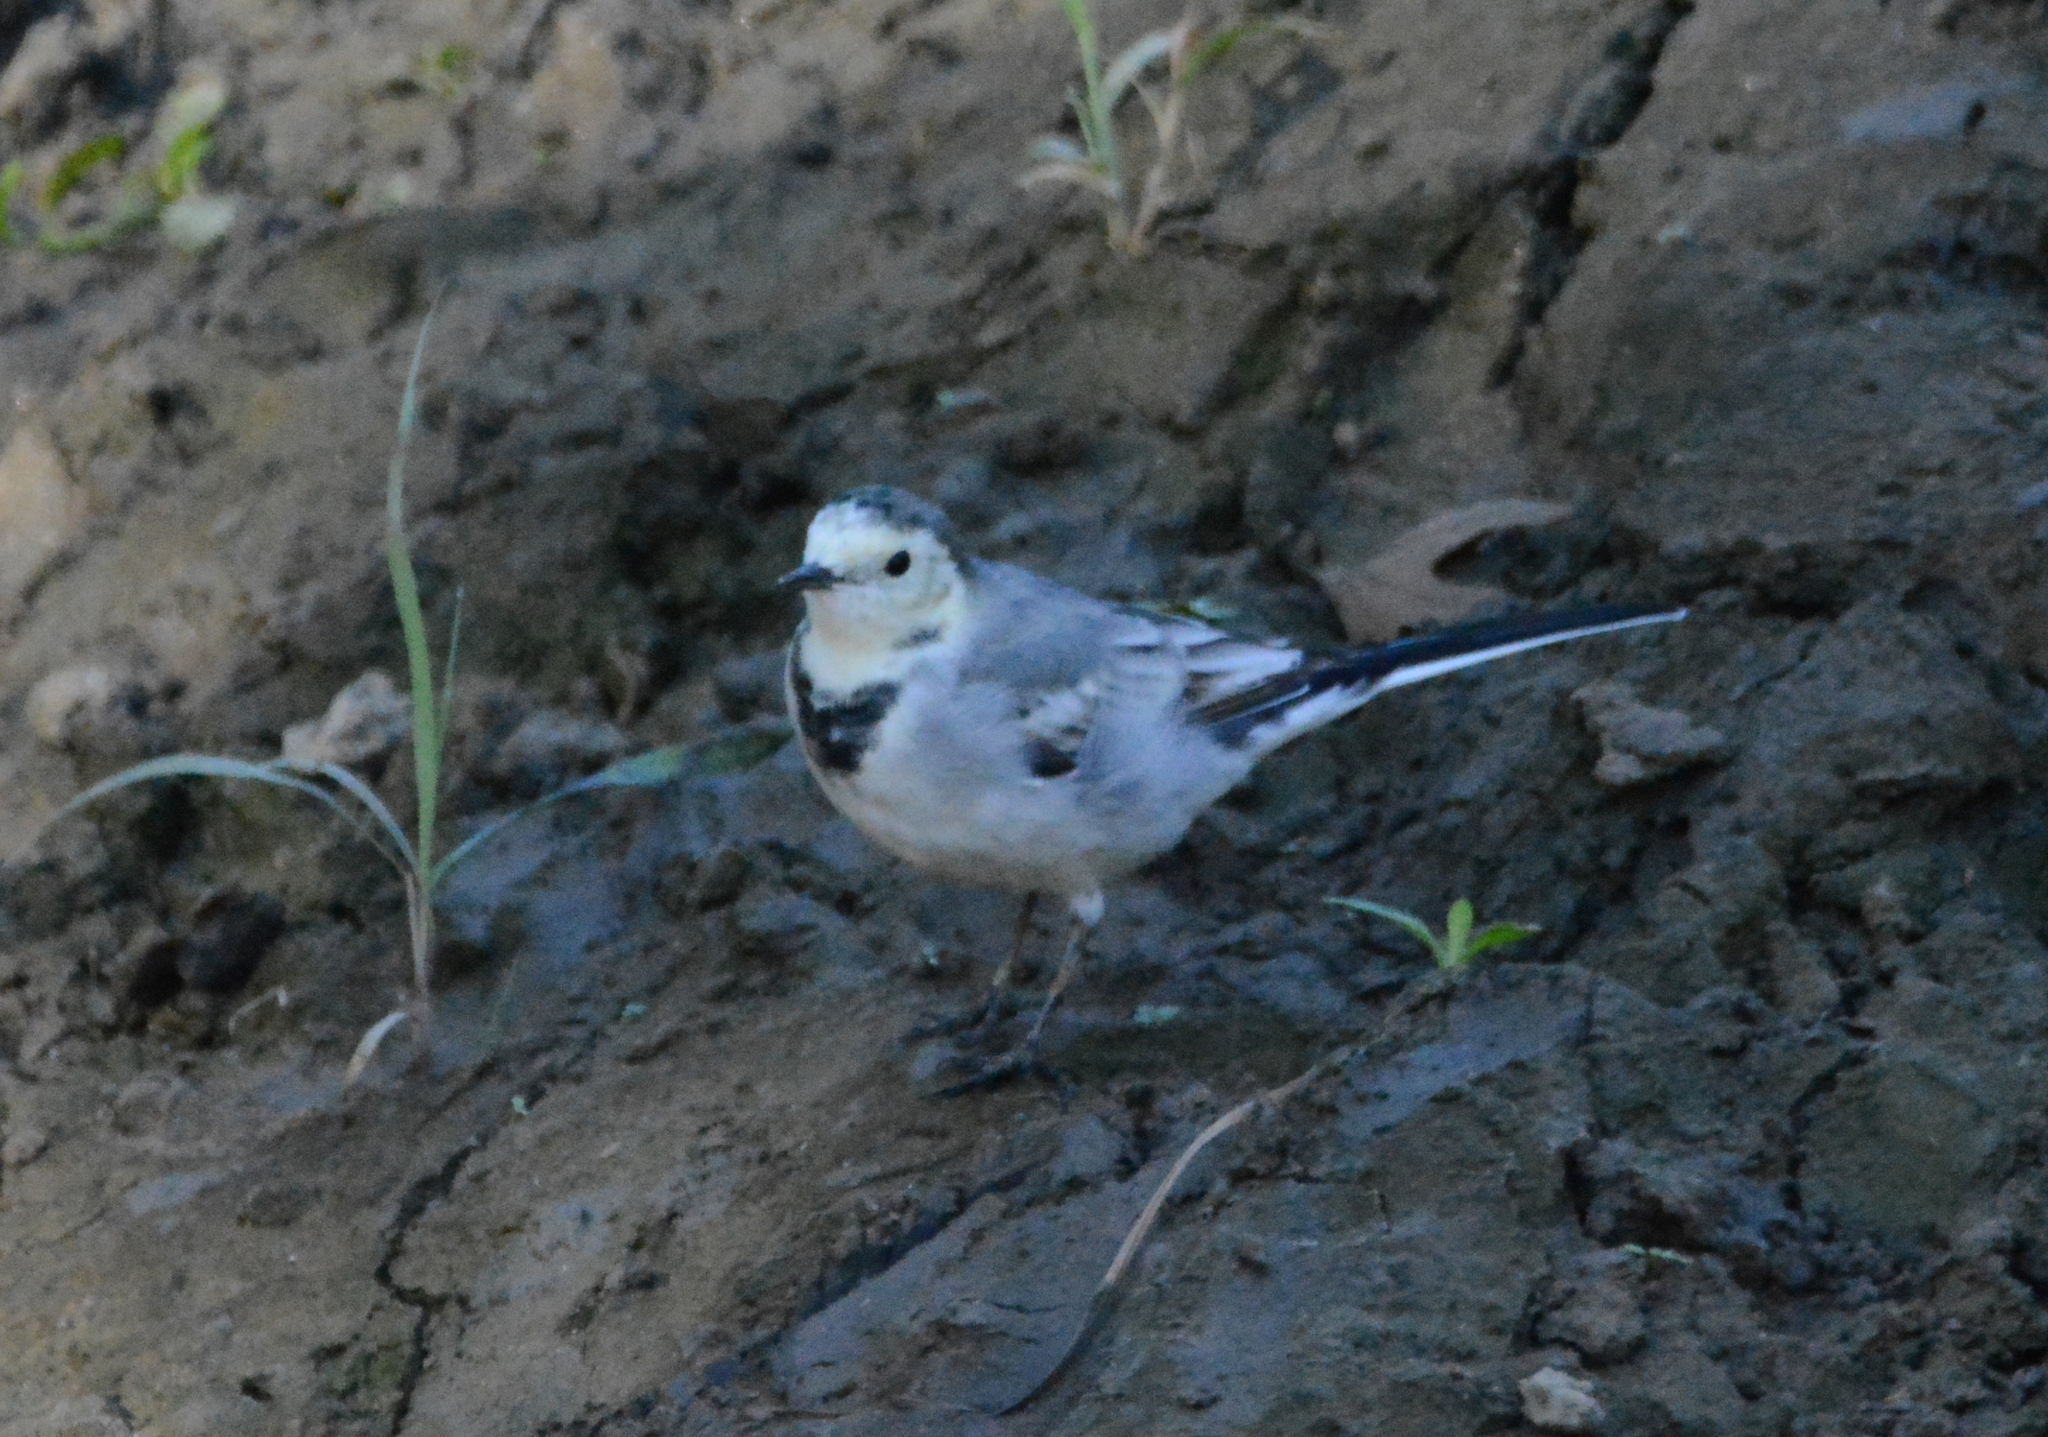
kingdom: Animalia
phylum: Chordata
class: Aves
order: Passeriformes
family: Motacillidae
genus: Motacilla
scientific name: Motacilla alba
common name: White wagtail
